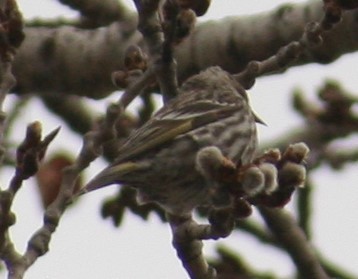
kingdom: Animalia
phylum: Chordata
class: Aves
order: Passeriformes
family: Fringillidae
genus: Spinus
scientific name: Spinus pinus
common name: Pine siskin
